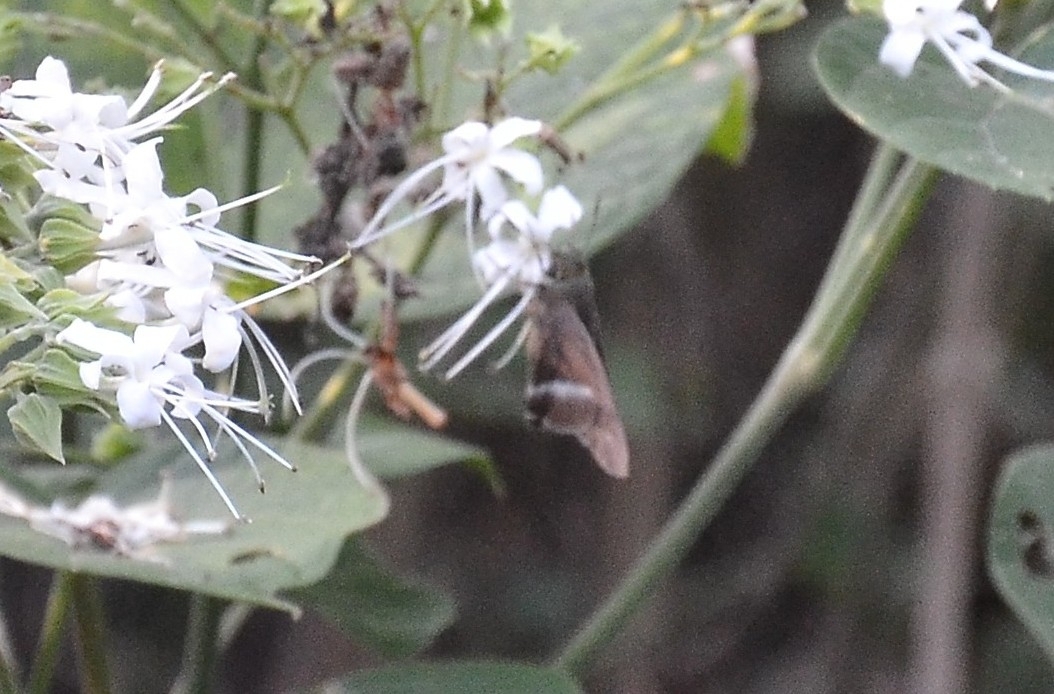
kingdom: Animalia
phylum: Arthropoda
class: Insecta
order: Lepidoptera
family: Hesperiidae
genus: Hasora
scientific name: Hasora chromus
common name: Common banded awl
